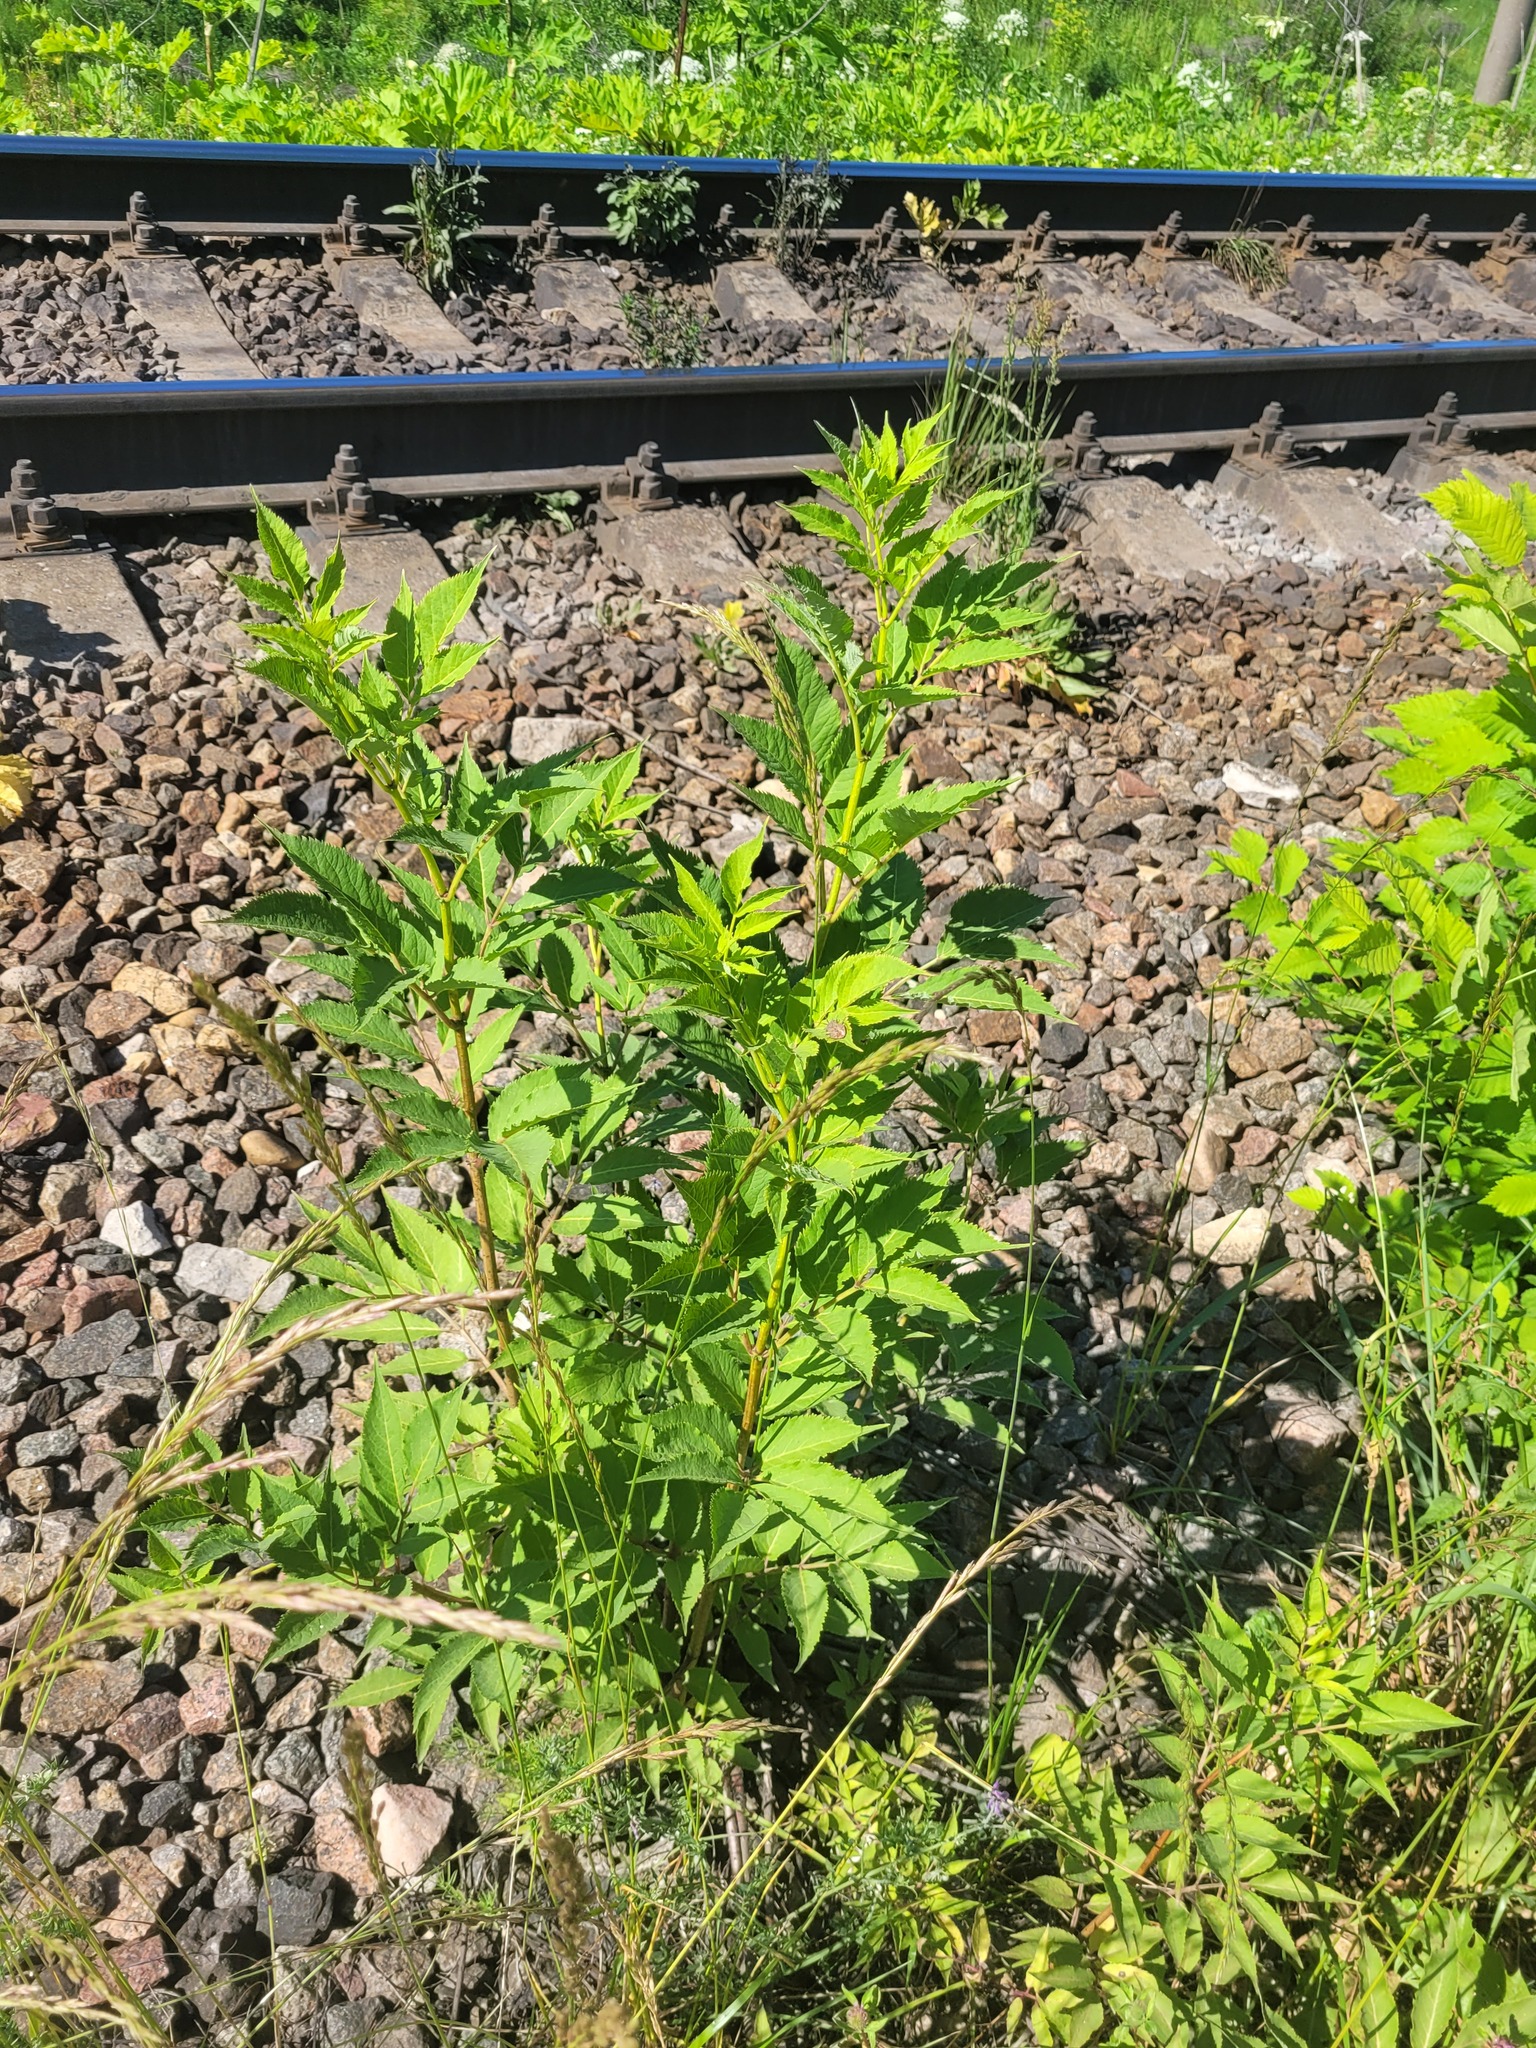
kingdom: Plantae
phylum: Tracheophyta
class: Magnoliopsida
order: Dipsacales
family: Viburnaceae
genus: Sambucus
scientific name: Sambucus racemosa
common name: Red-berried elder
